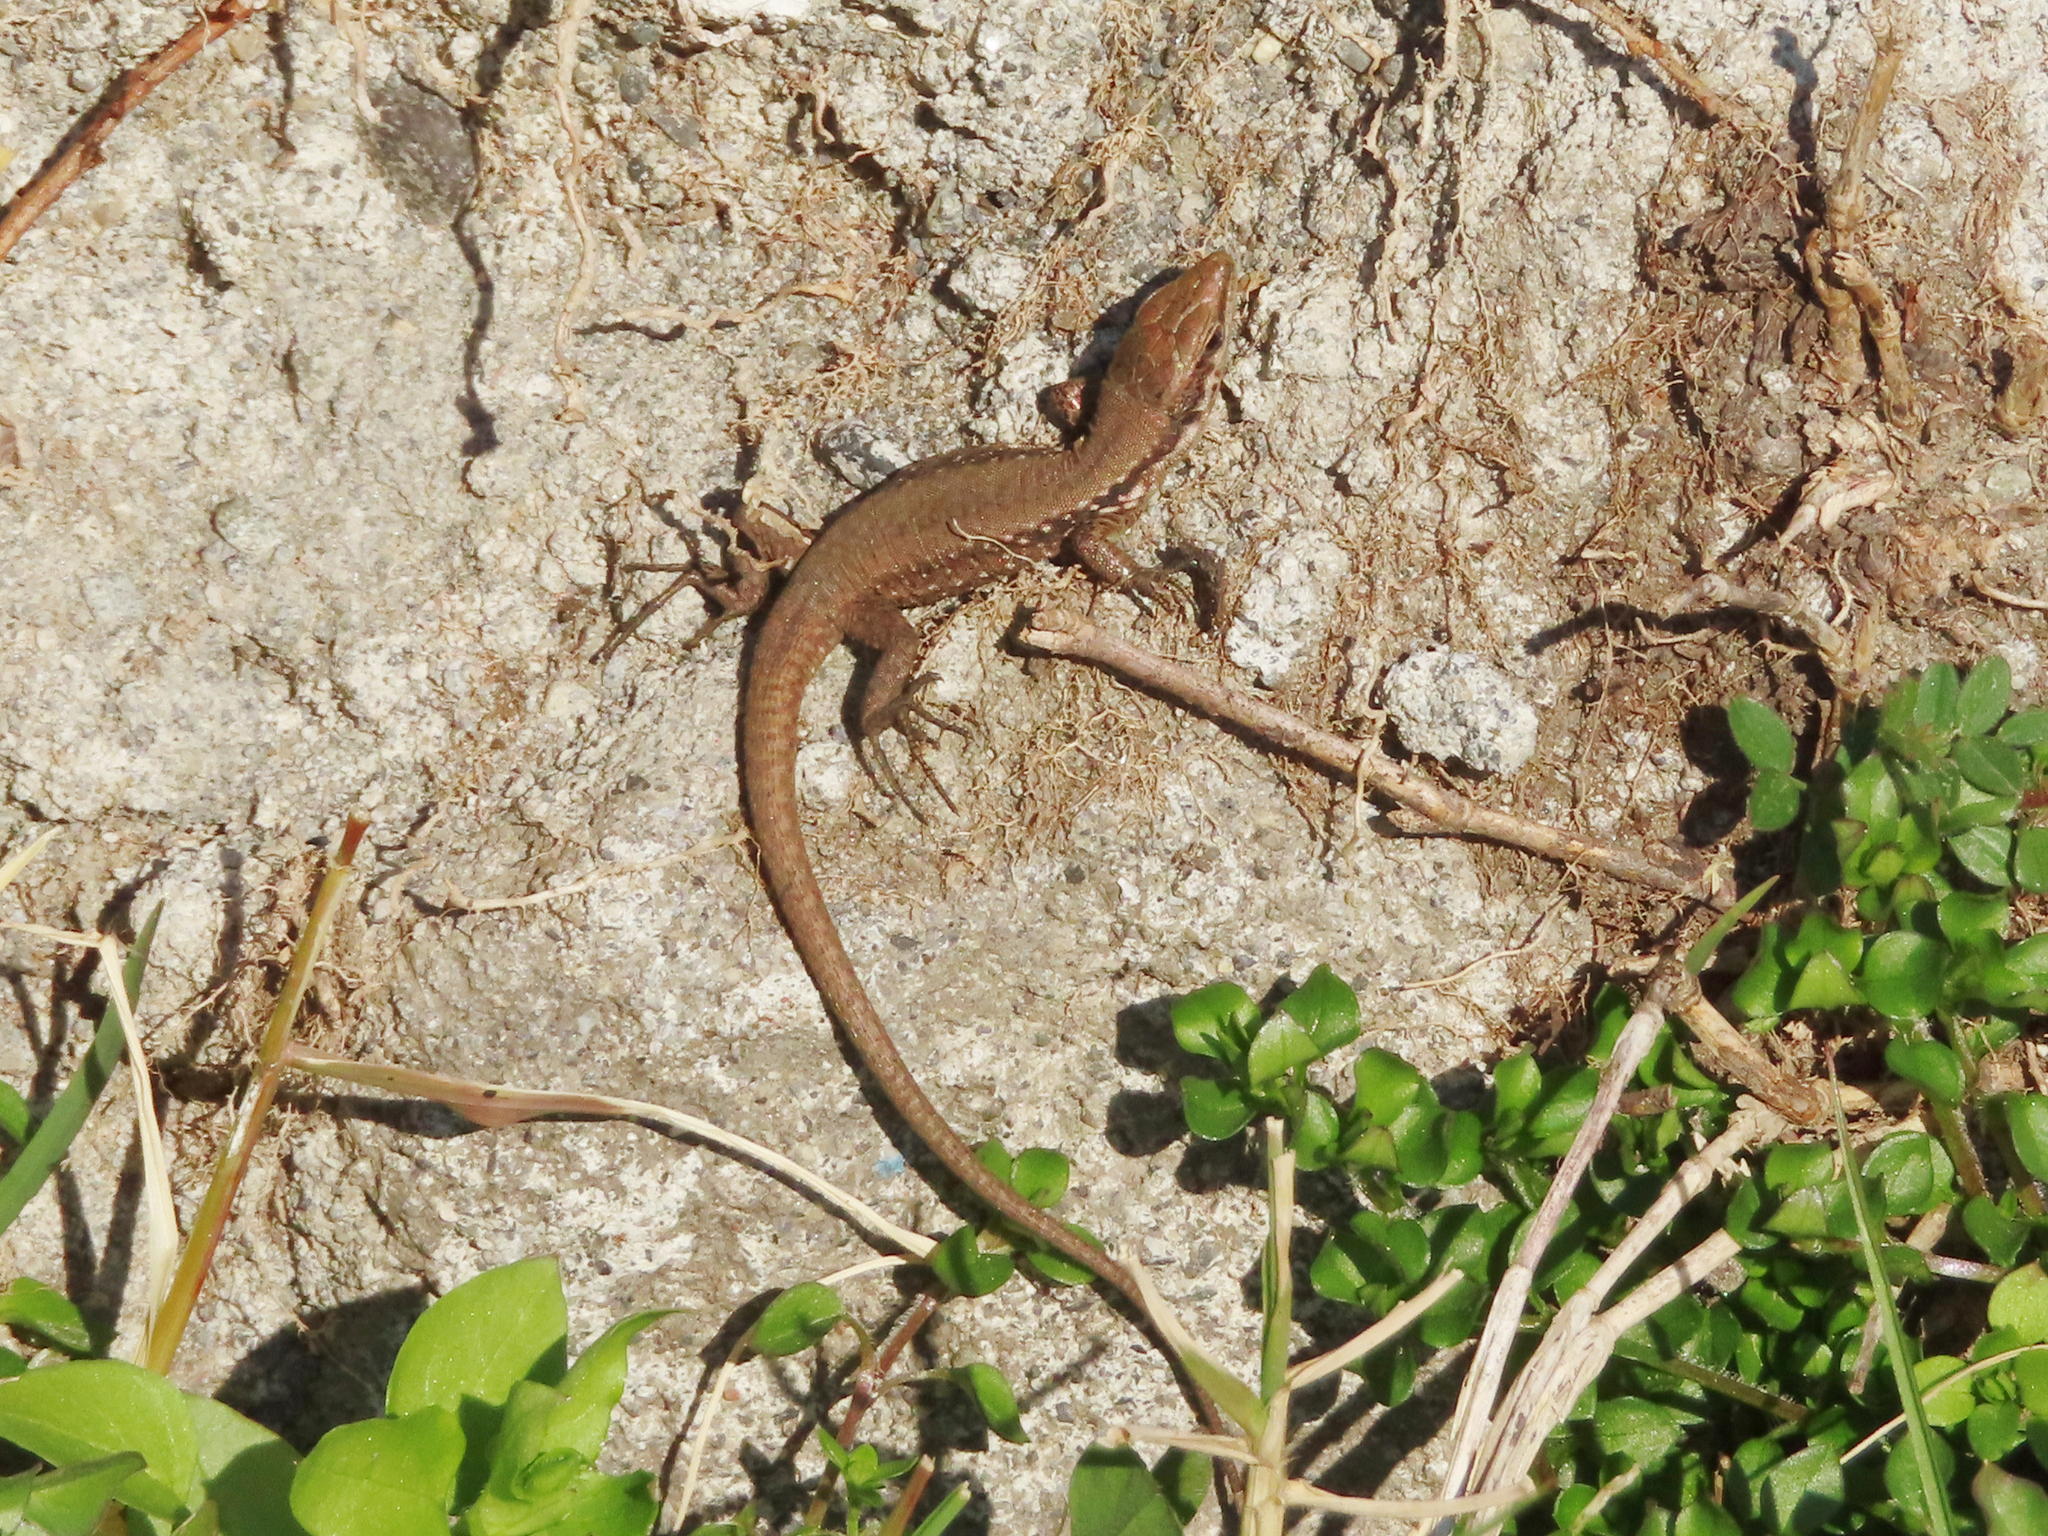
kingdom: Animalia
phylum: Chordata
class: Squamata
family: Lacertidae
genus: Phoenicolacerta
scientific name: Phoenicolacerta laevis
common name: Lebanon lizard
